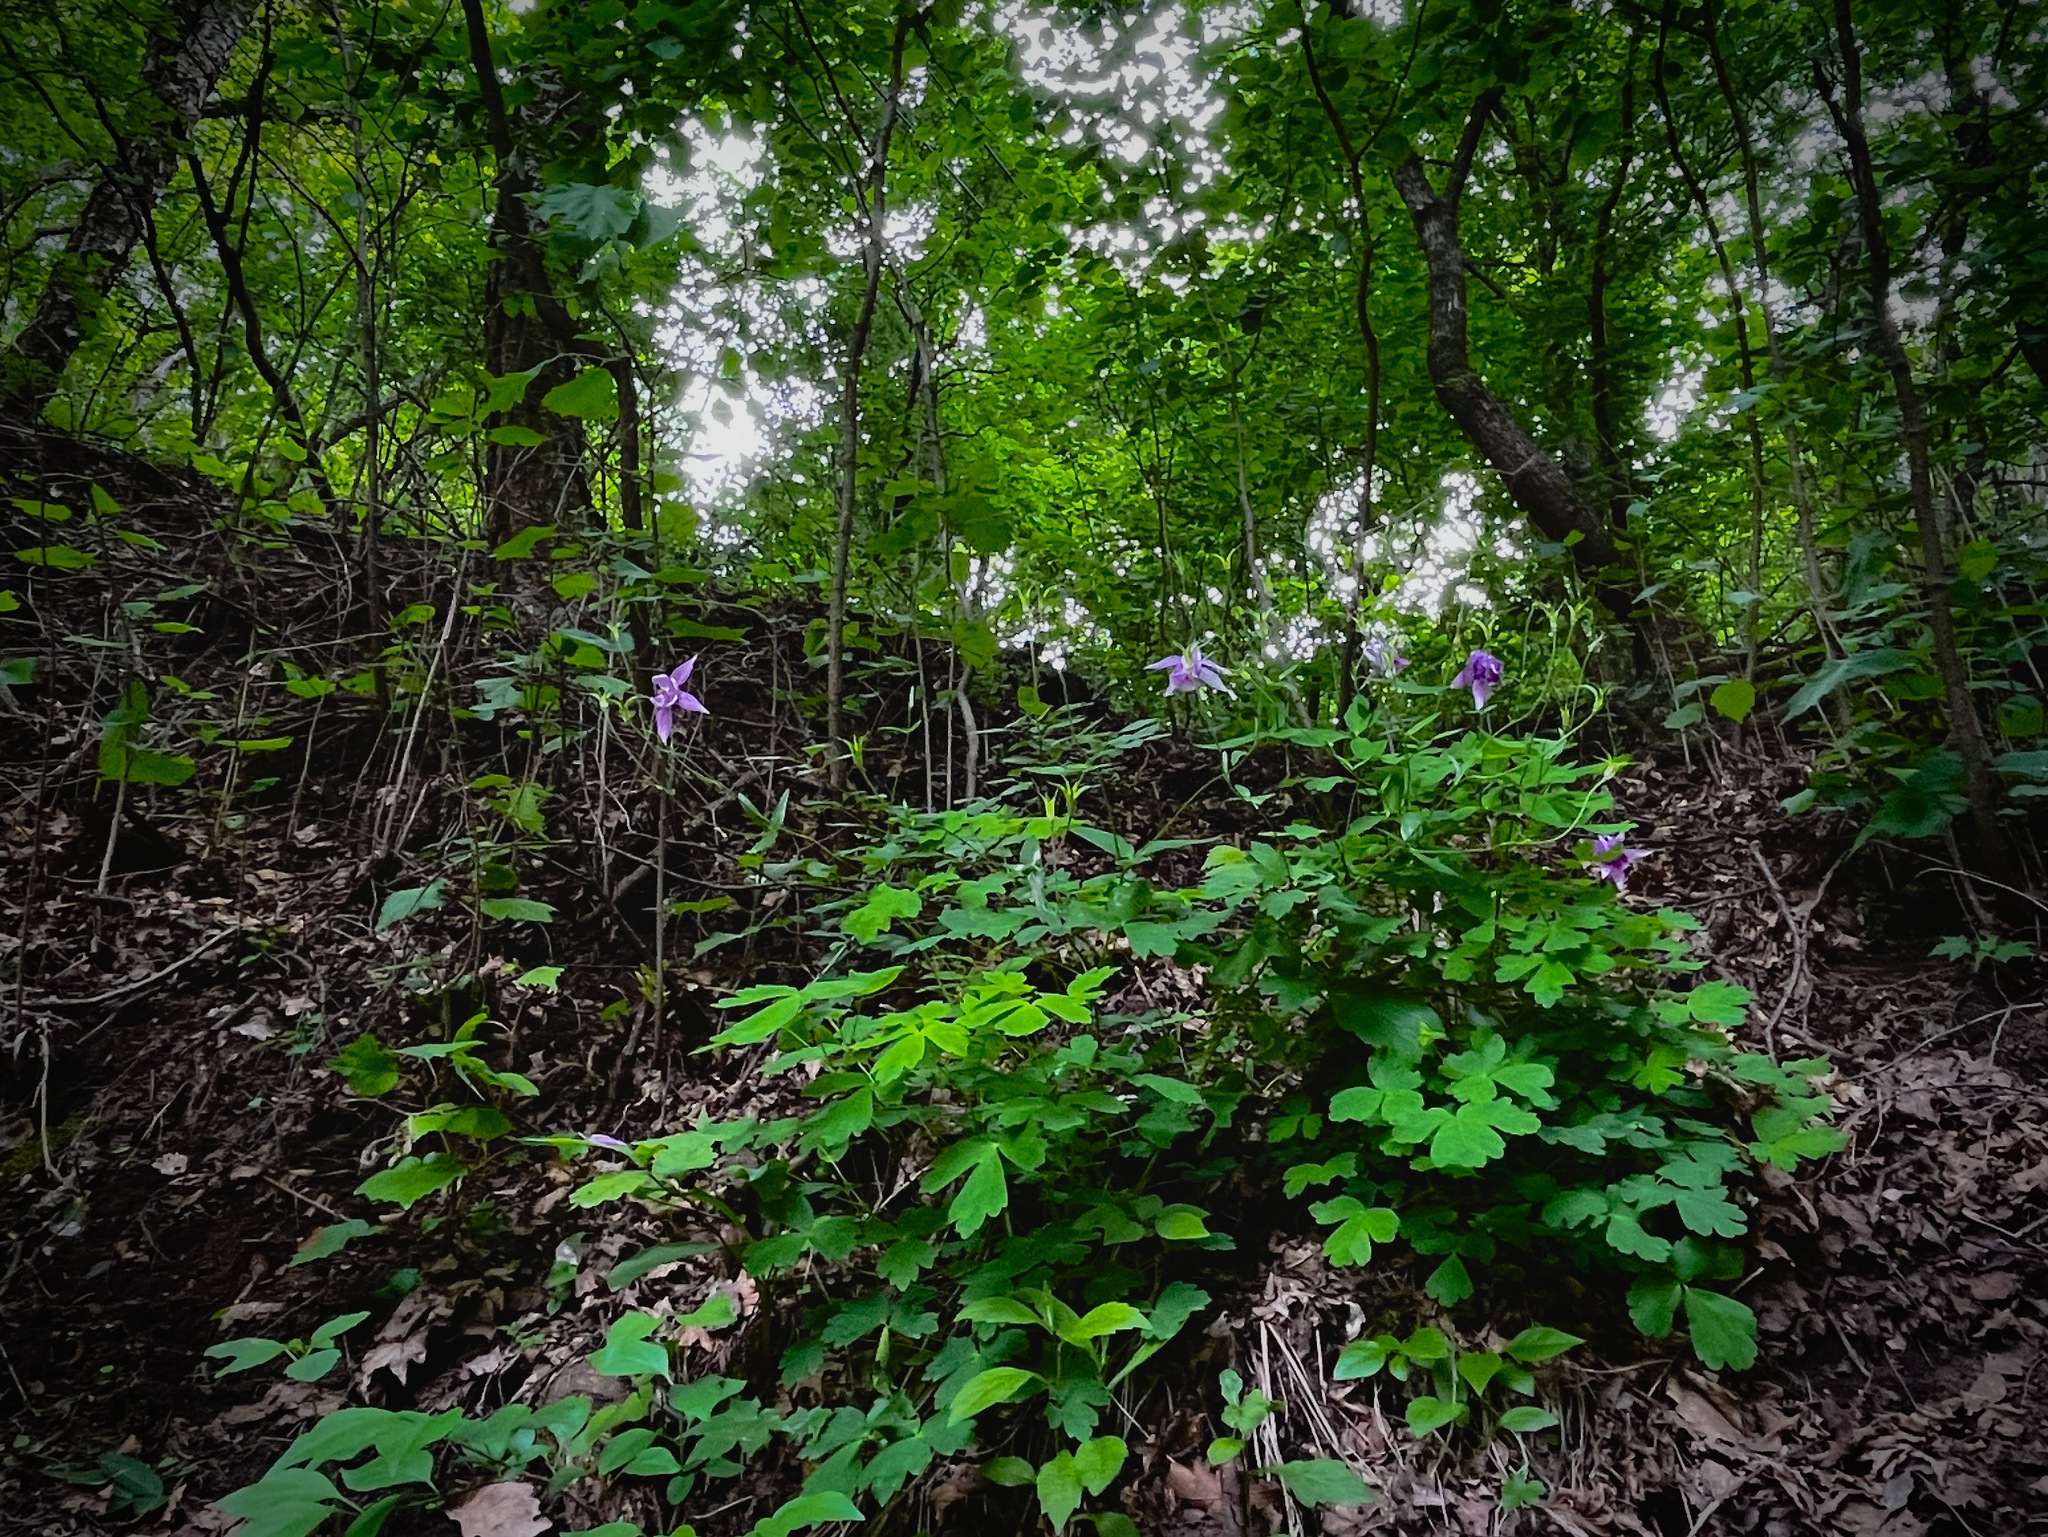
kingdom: Plantae
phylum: Tracheophyta
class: Magnoliopsida
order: Ranunculales
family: Ranunculaceae
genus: Aquilegia
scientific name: Aquilegia yabeana
